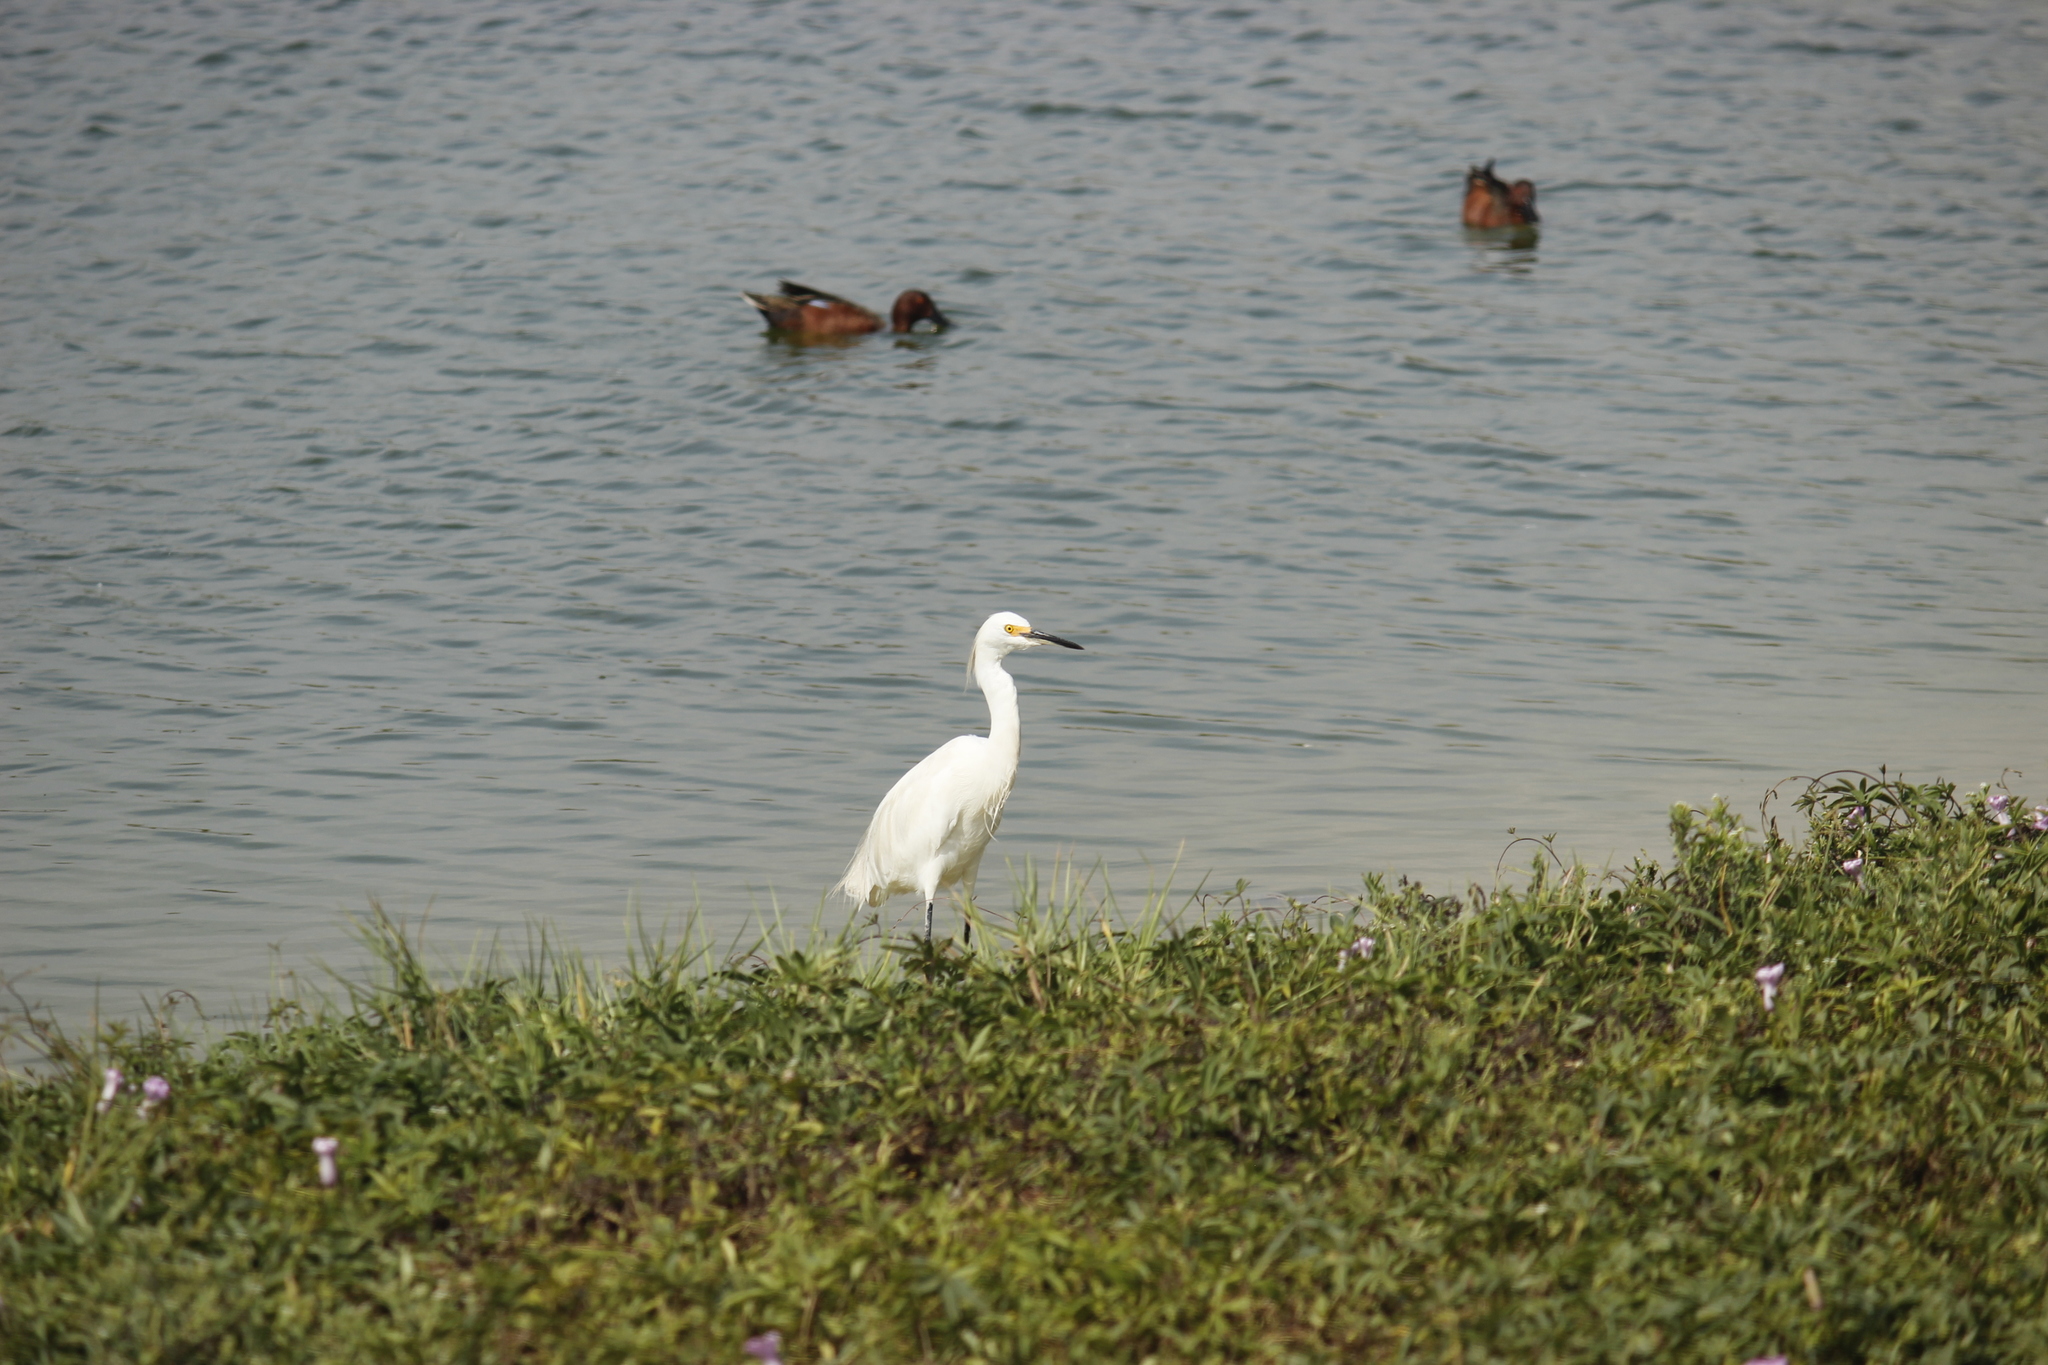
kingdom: Animalia
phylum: Chordata
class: Aves
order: Pelecaniformes
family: Ardeidae
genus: Egretta
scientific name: Egretta thula
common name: Snowy egret
